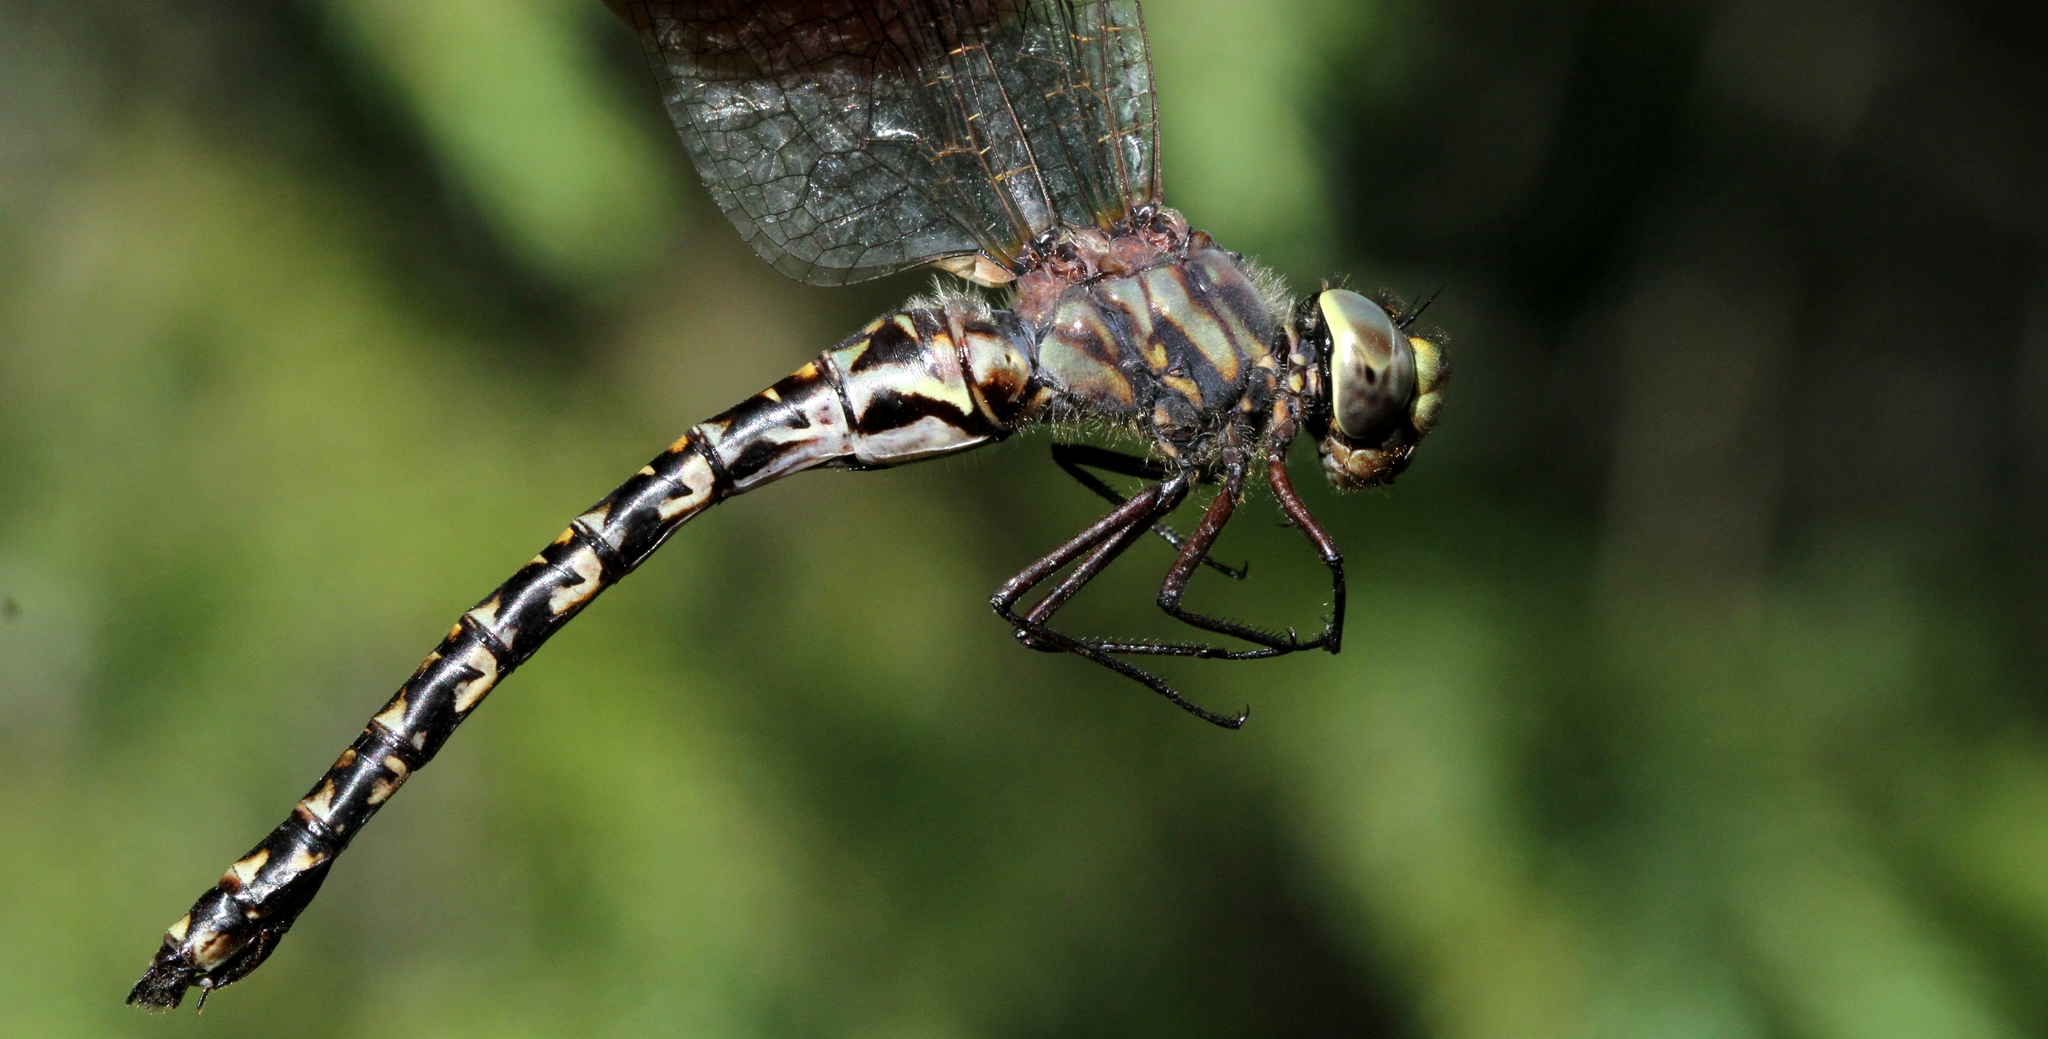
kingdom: Animalia
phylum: Arthropoda
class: Insecta
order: Odonata
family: Aeshnidae
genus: Gomphaeschna
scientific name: Gomphaeschna furcillata
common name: Harlequin darner
